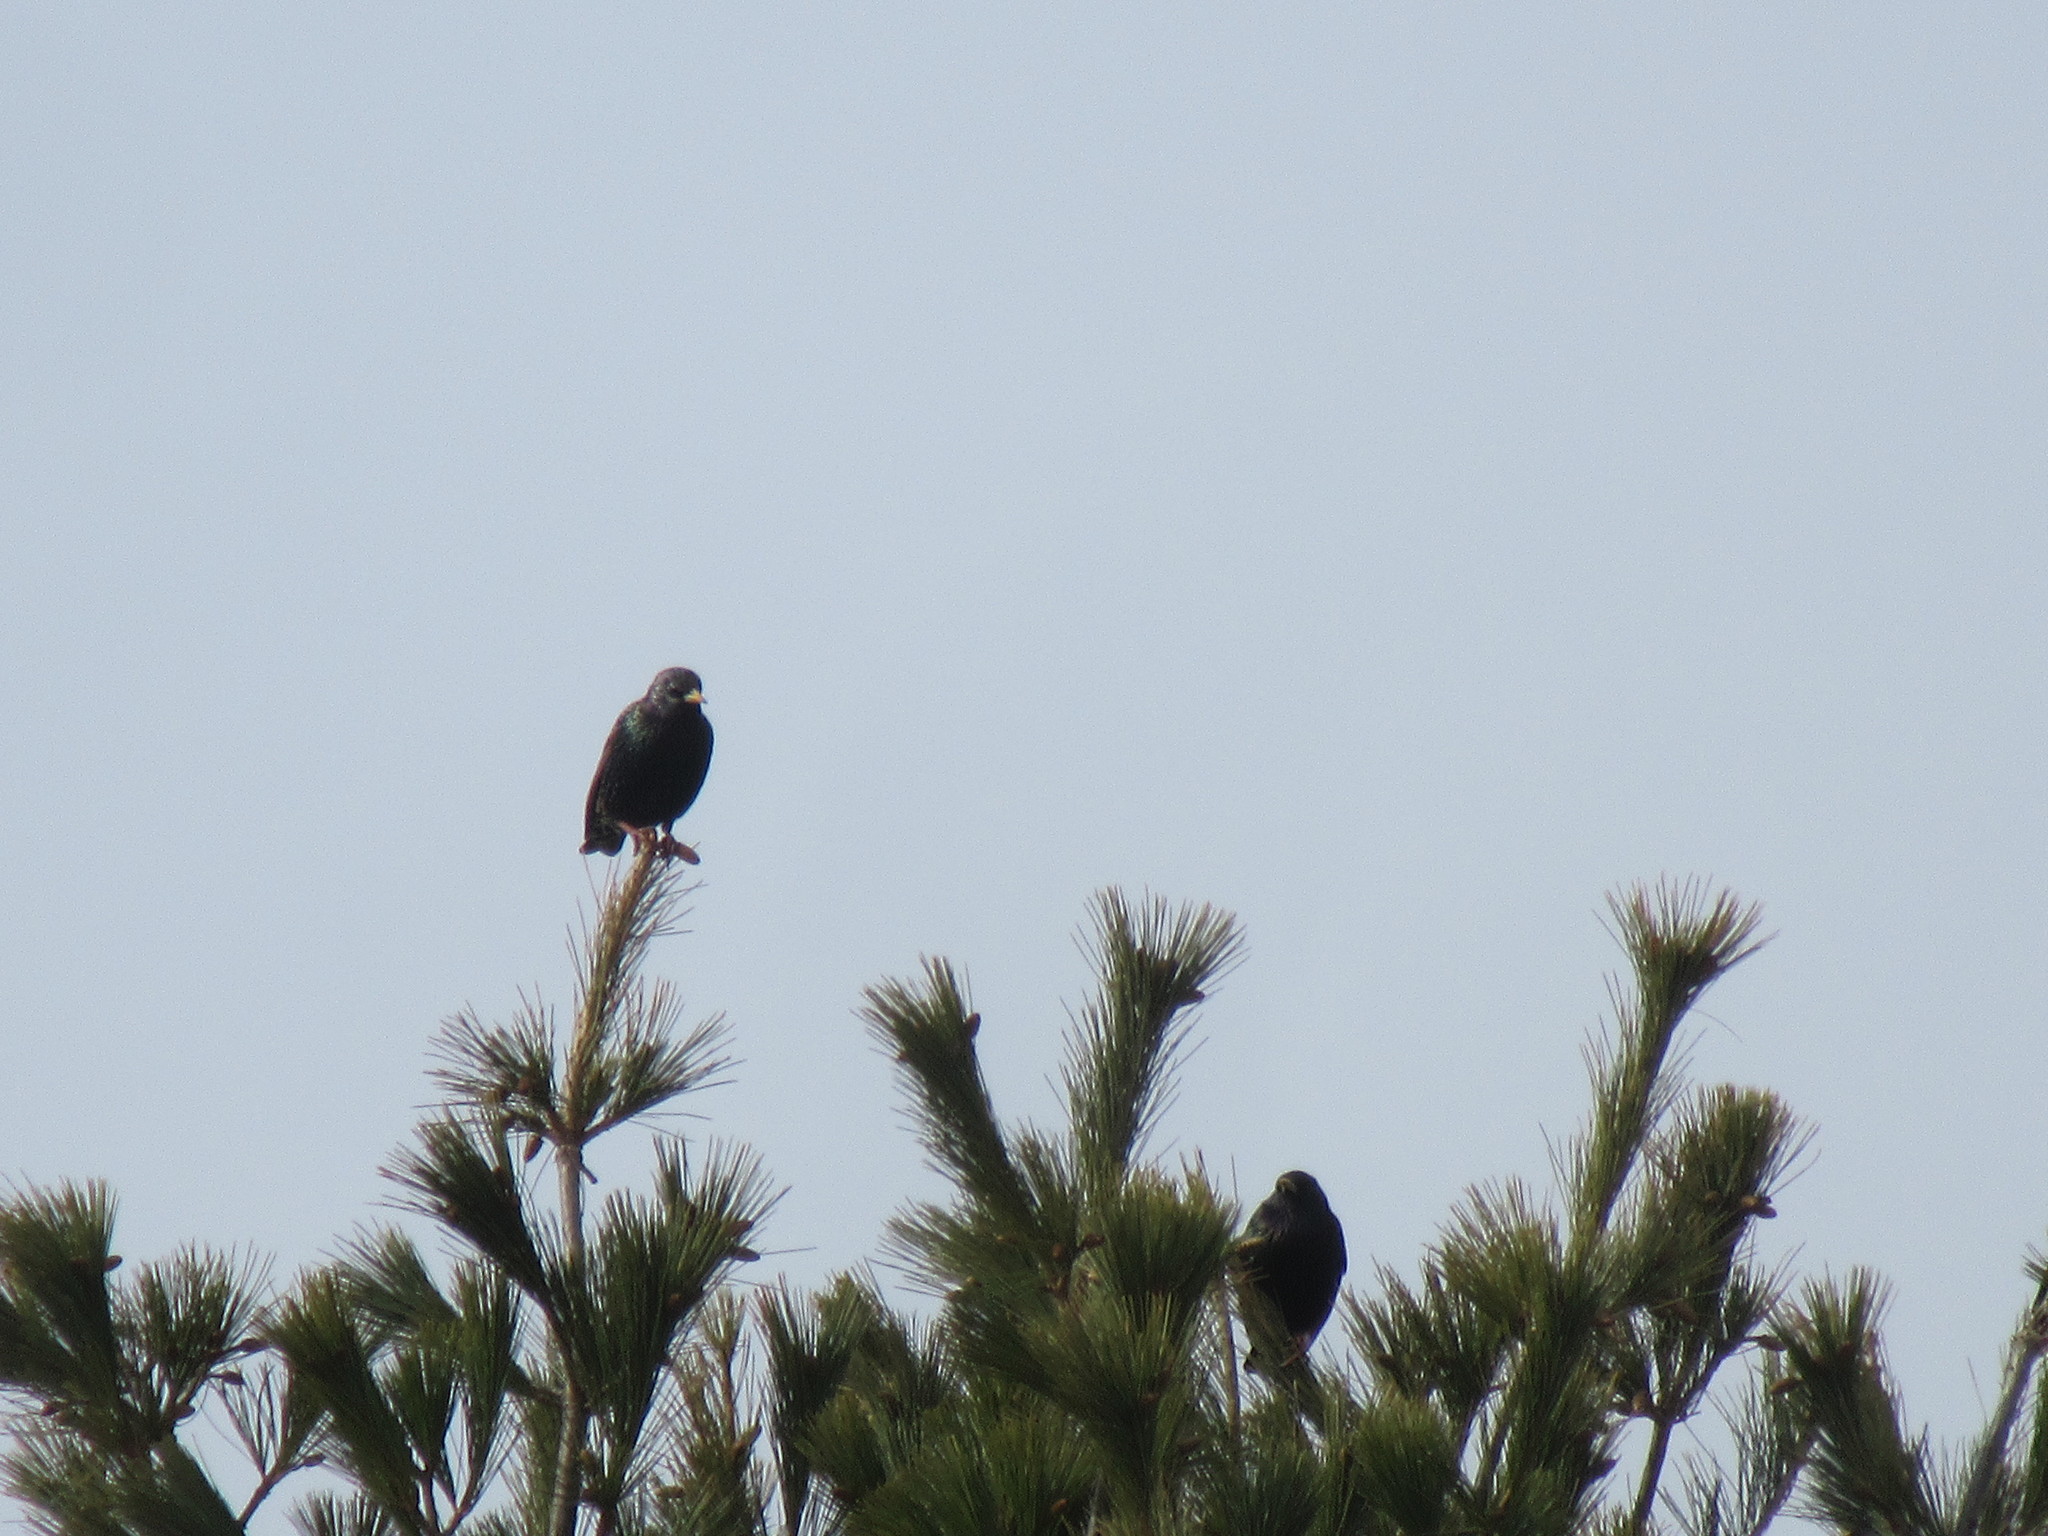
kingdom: Animalia
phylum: Chordata
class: Aves
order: Passeriformes
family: Sturnidae
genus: Sturnus
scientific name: Sturnus vulgaris
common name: Common starling
